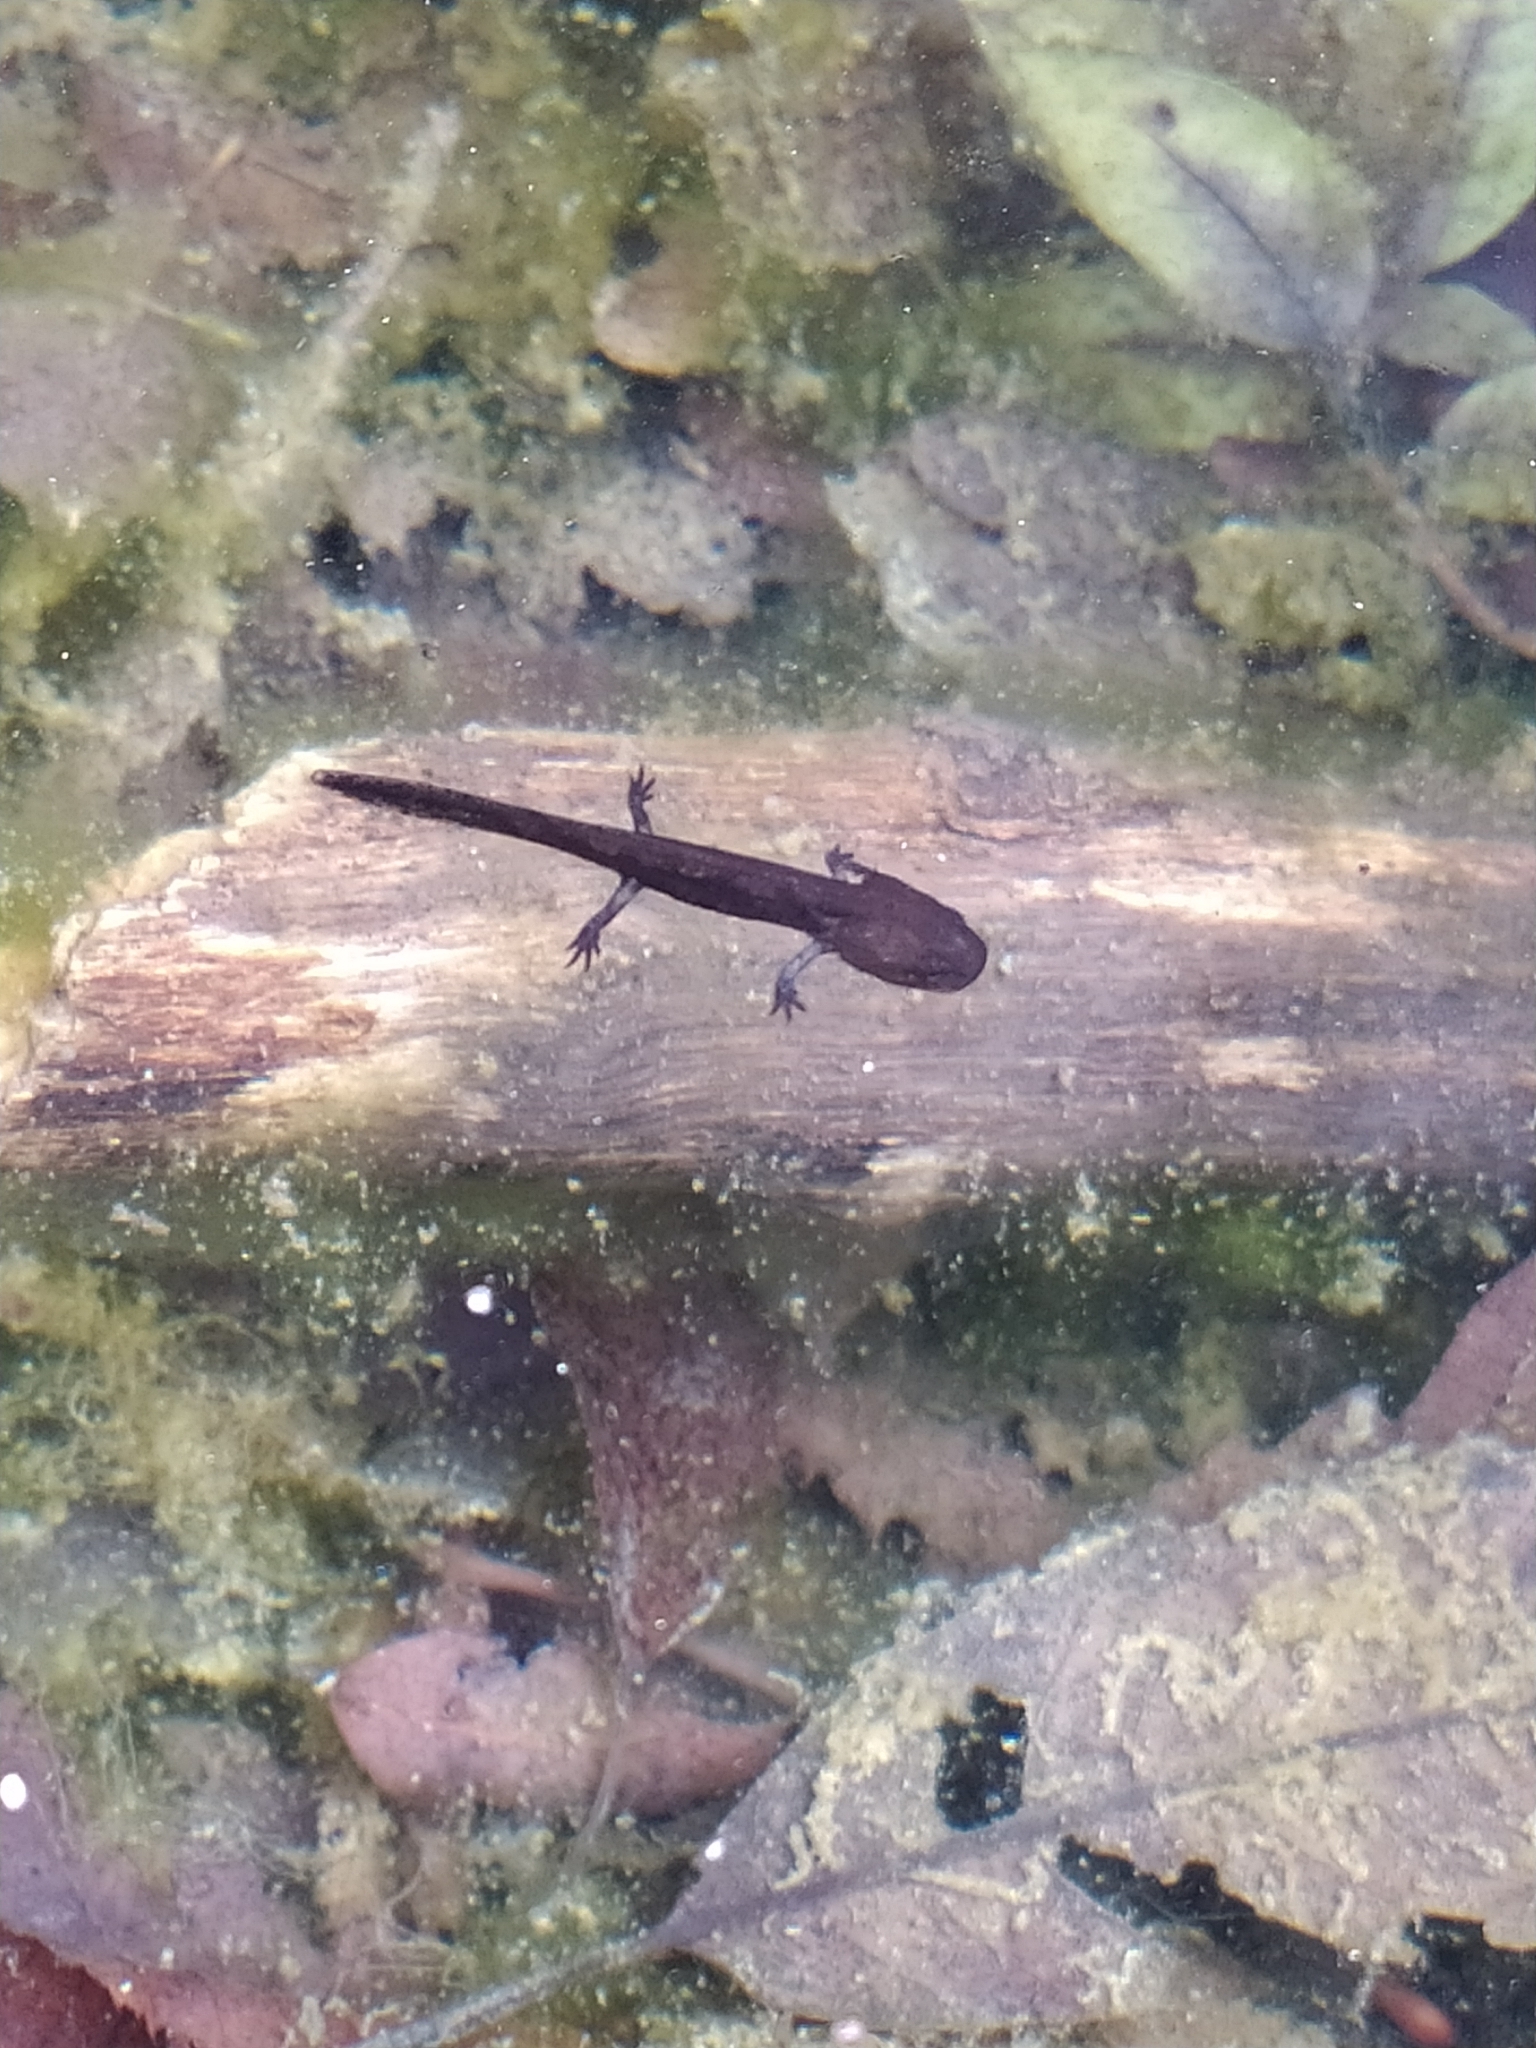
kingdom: Animalia
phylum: Chordata
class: Amphibia
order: Caudata
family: Salamandridae
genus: Salamandra
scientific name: Salamandra salamandra
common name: Fire salamander
